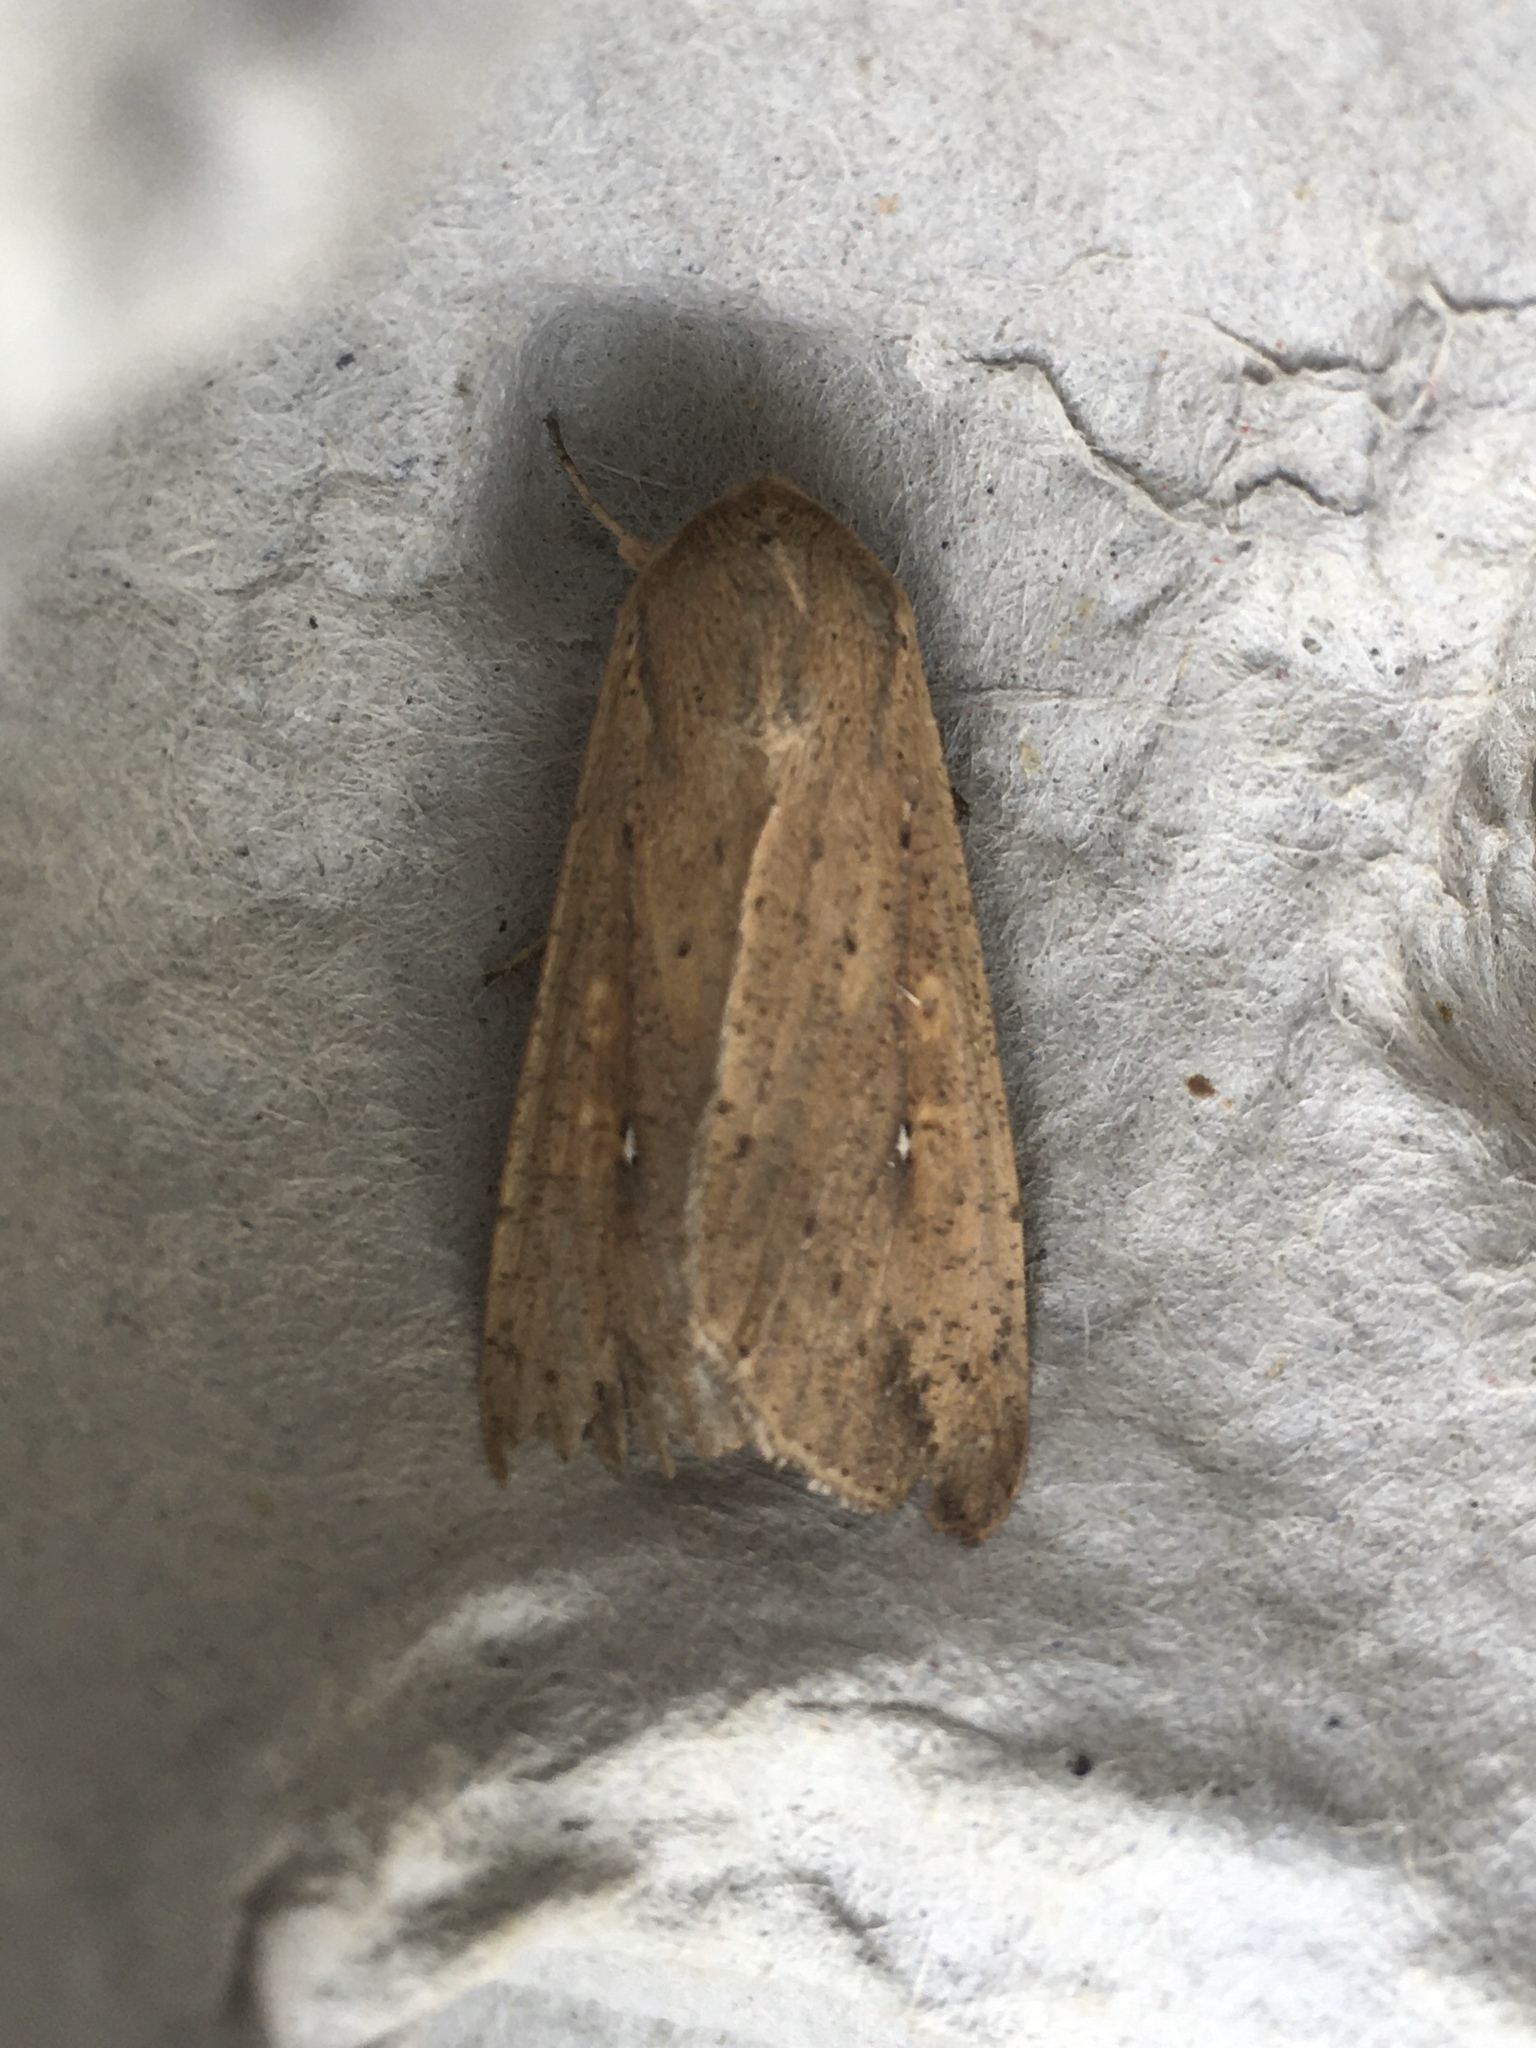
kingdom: Animalia
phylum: Arthropoda
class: Insecta
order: Lepidoptera
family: Noctuidae
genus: Mythimna
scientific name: Mythimna unipuncta
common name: White-speck
